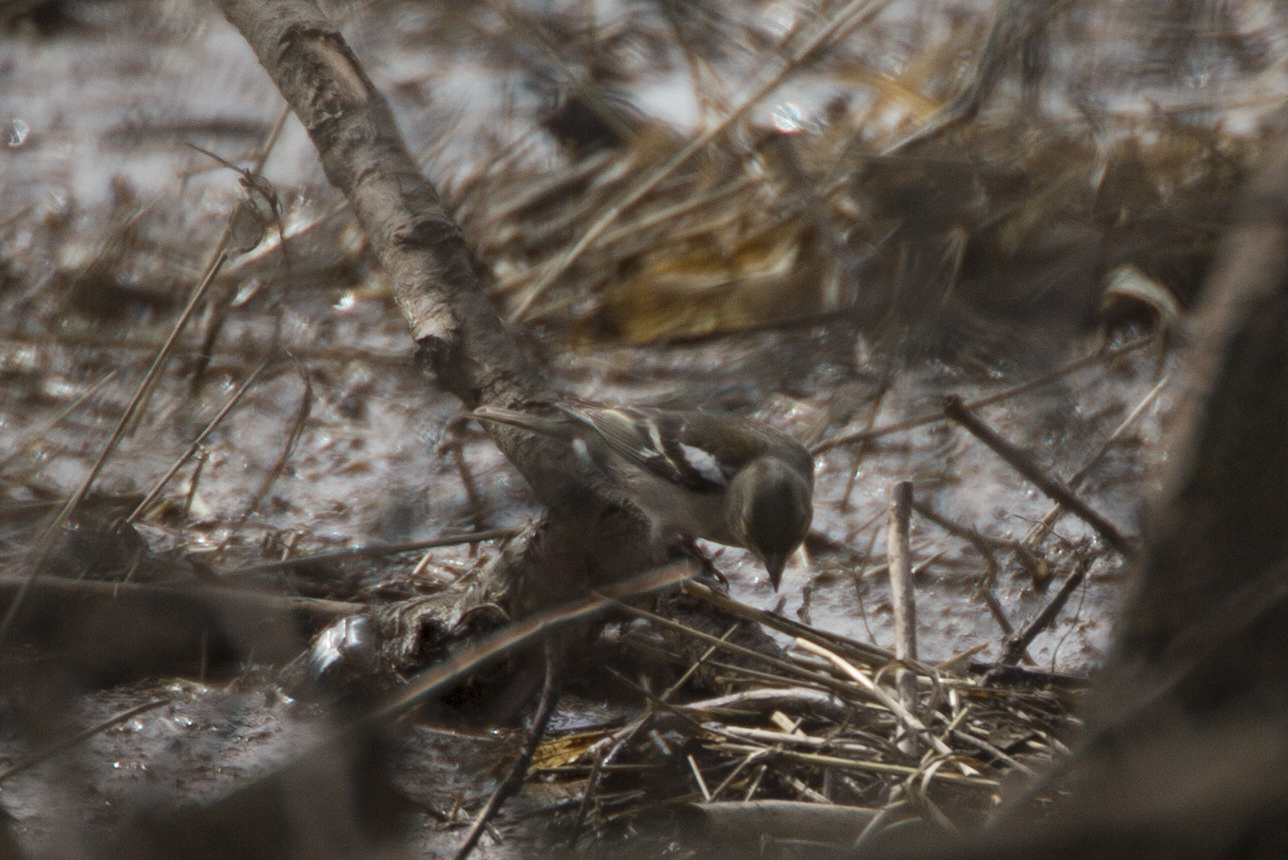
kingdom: Animalia
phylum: Chordata
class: Aves
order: Passeriformes
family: Fringillidae
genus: Fringilla
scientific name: Fringilla coelebs
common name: Common chaffinch
